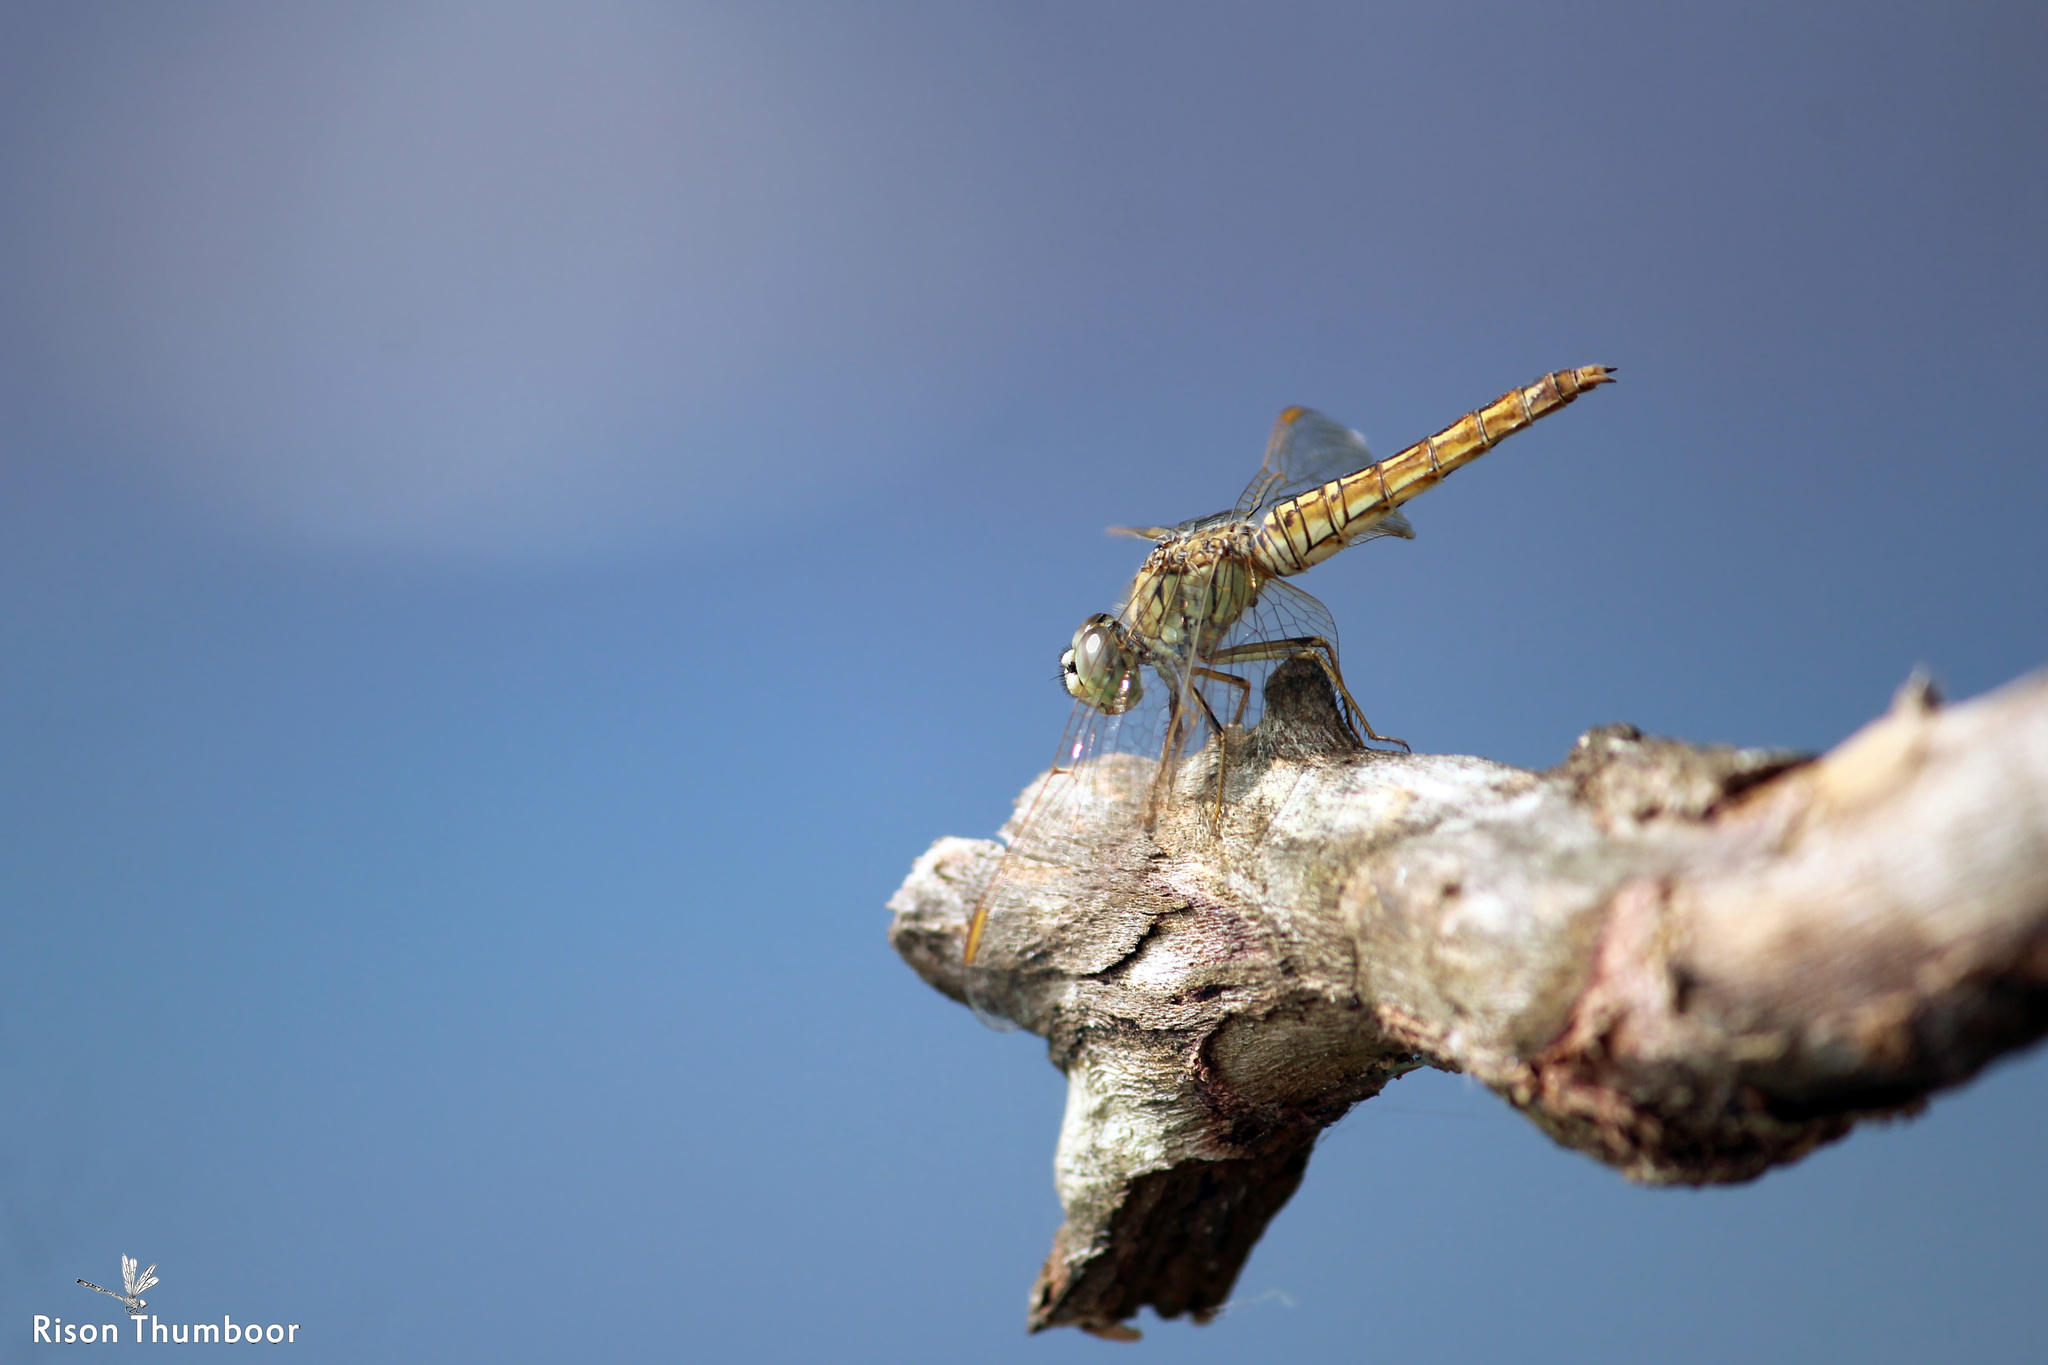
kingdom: Animalia
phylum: Arthropoda
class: Insecta
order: Odonata
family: Libellulidae
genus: Brachythemis
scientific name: Brachythemis contaminata
